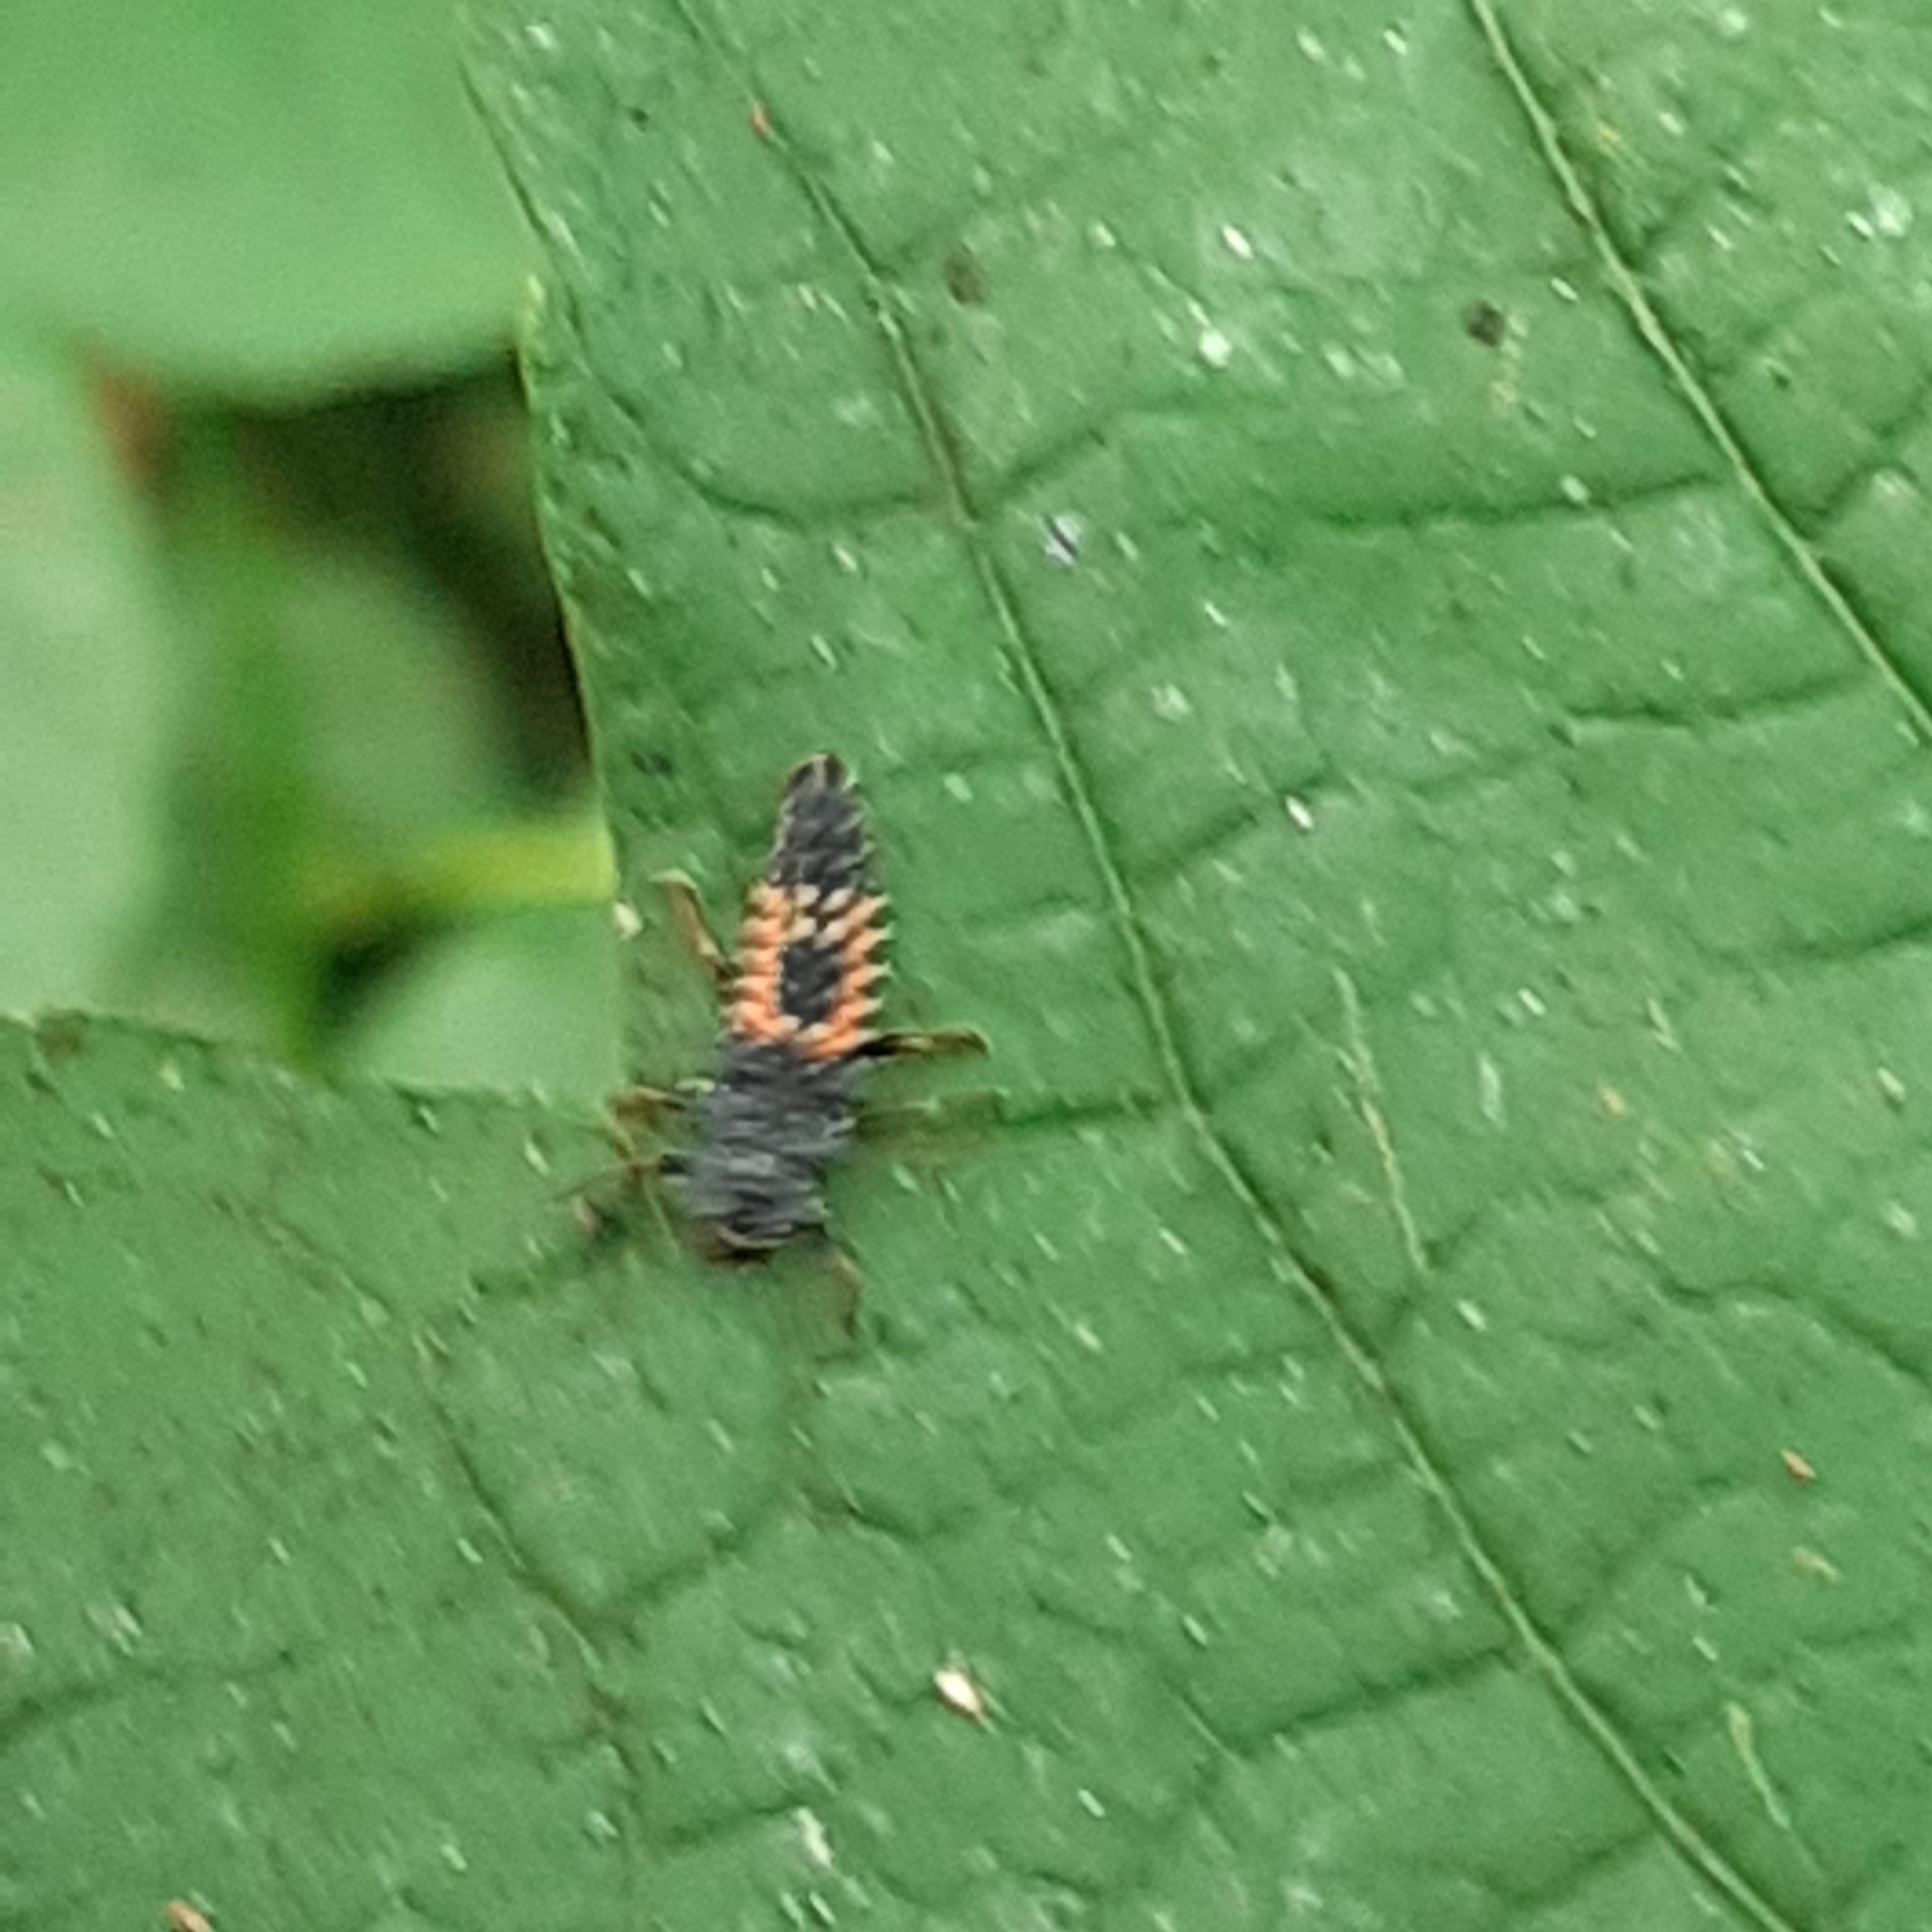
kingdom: Animalia
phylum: Arthropoda
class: Insecta
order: Coleoptera
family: Coccinellidae
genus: Harmonia
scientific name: Harmonia axyridis
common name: Harlequin ladybird
